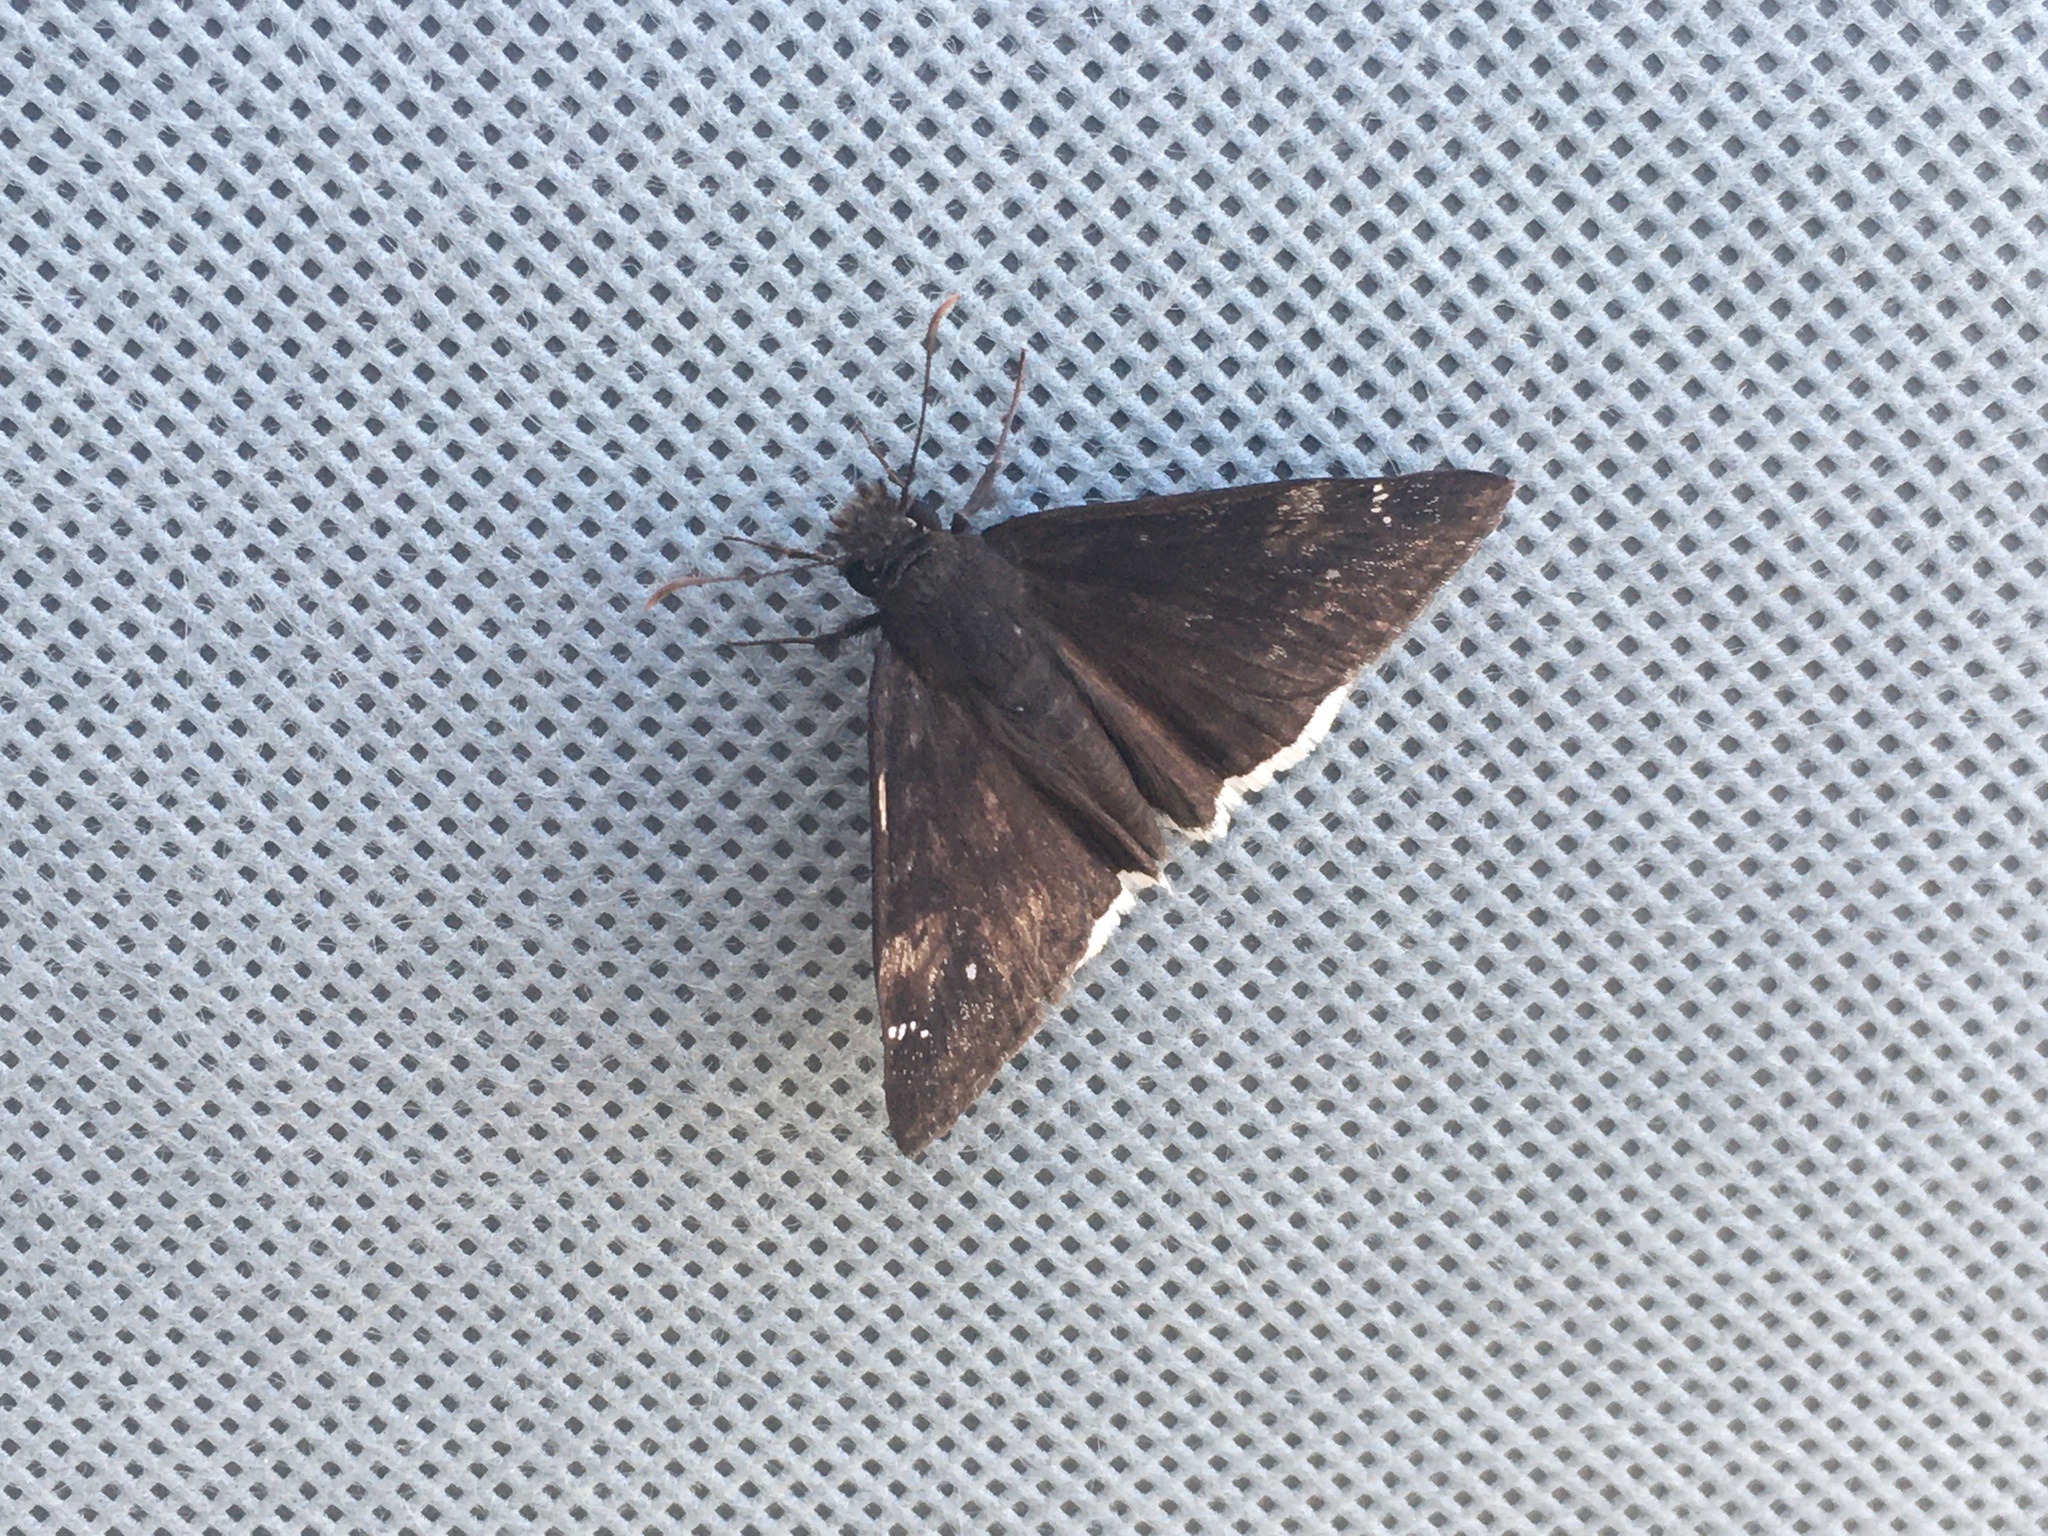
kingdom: Animalia
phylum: Arthropoda
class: Insecta
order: Lepidoptera
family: Hesperiidae
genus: Erynnis
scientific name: Erynnis funeralis
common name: Funereal duskywing
